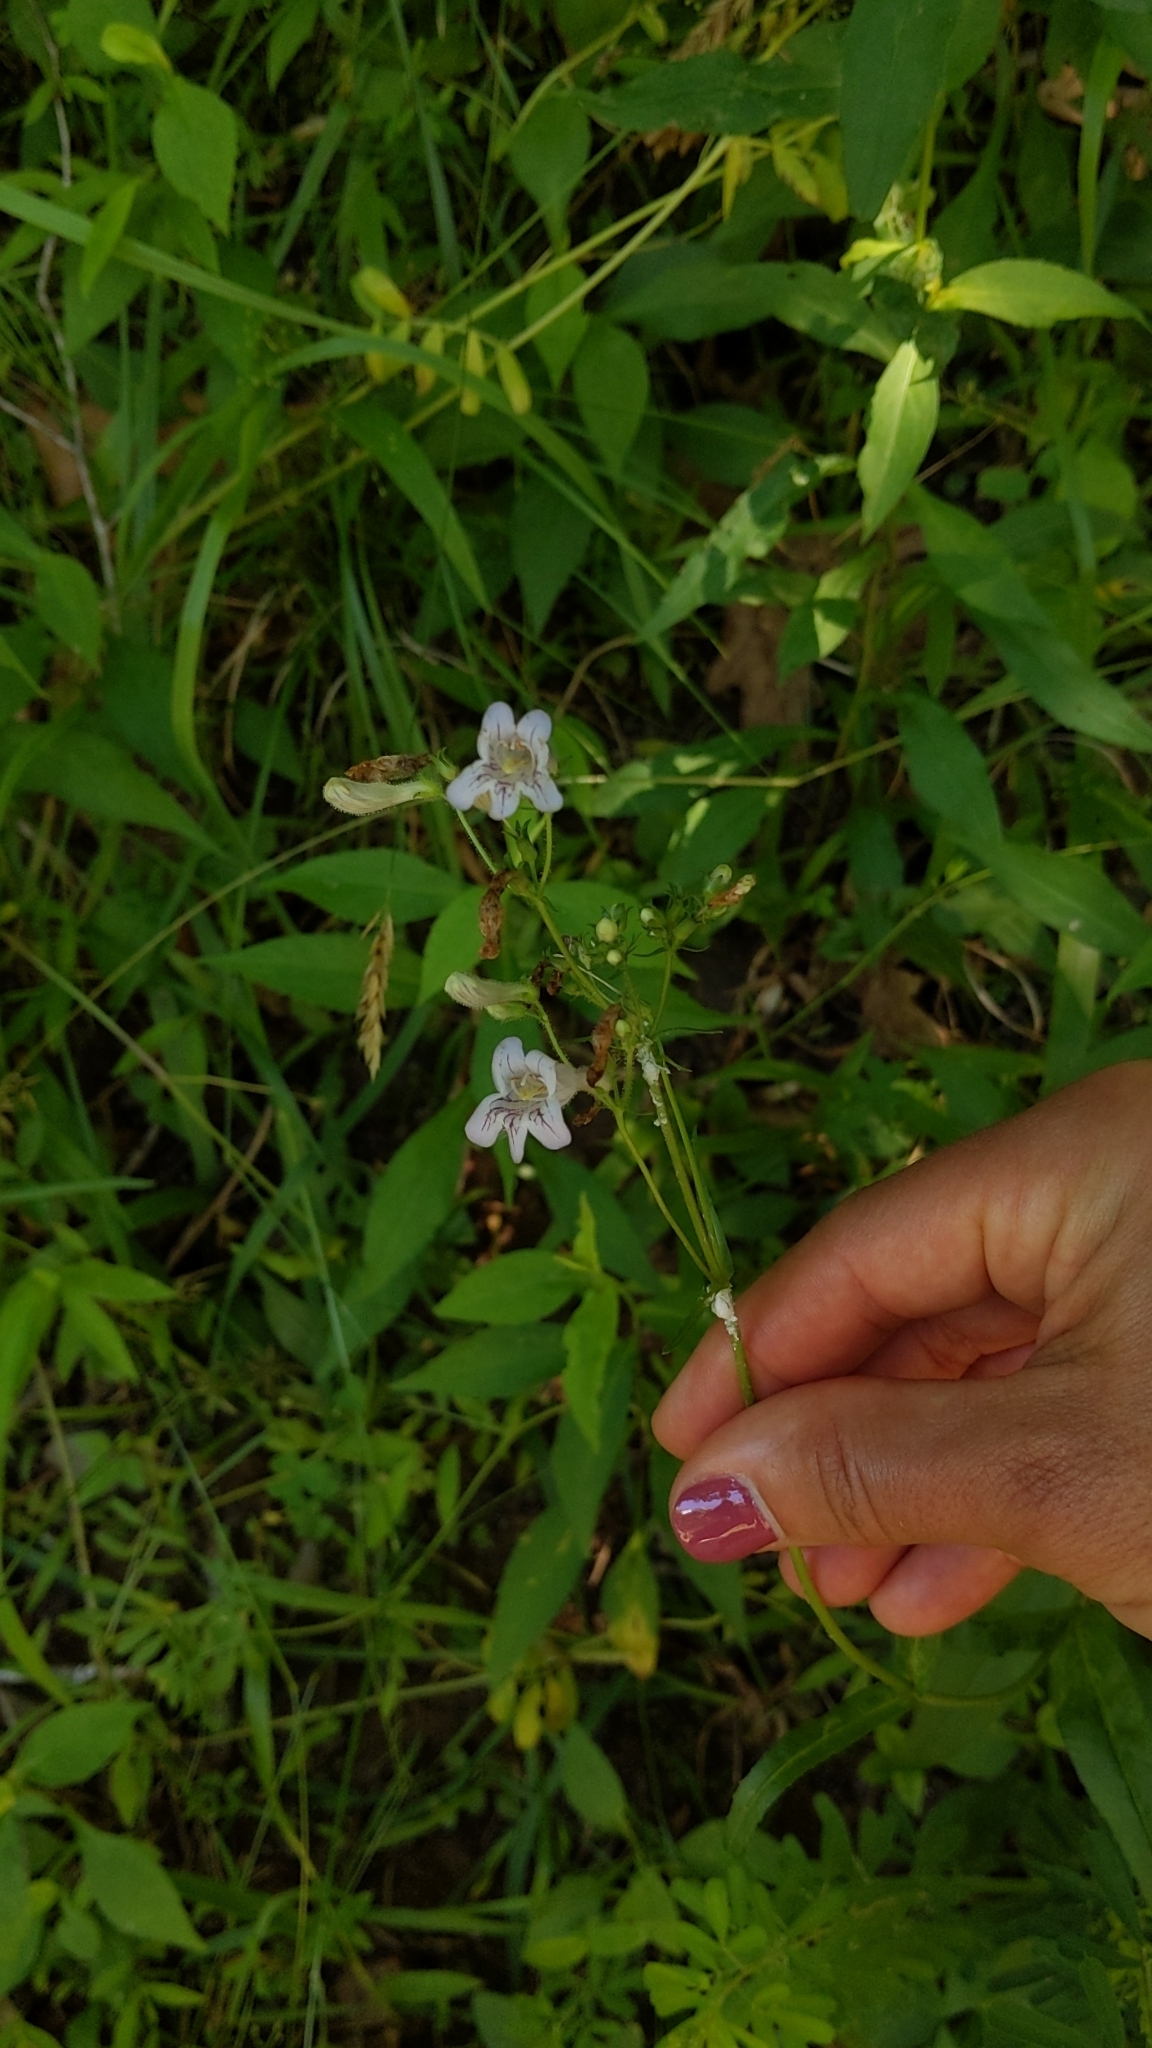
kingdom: Plantae
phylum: Tracheophyta
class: Magnoliopsida
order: Lamiales
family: Plantaginaceae
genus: Penstemon
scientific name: Penstemon laevigatus
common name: Eastern beardtongue
